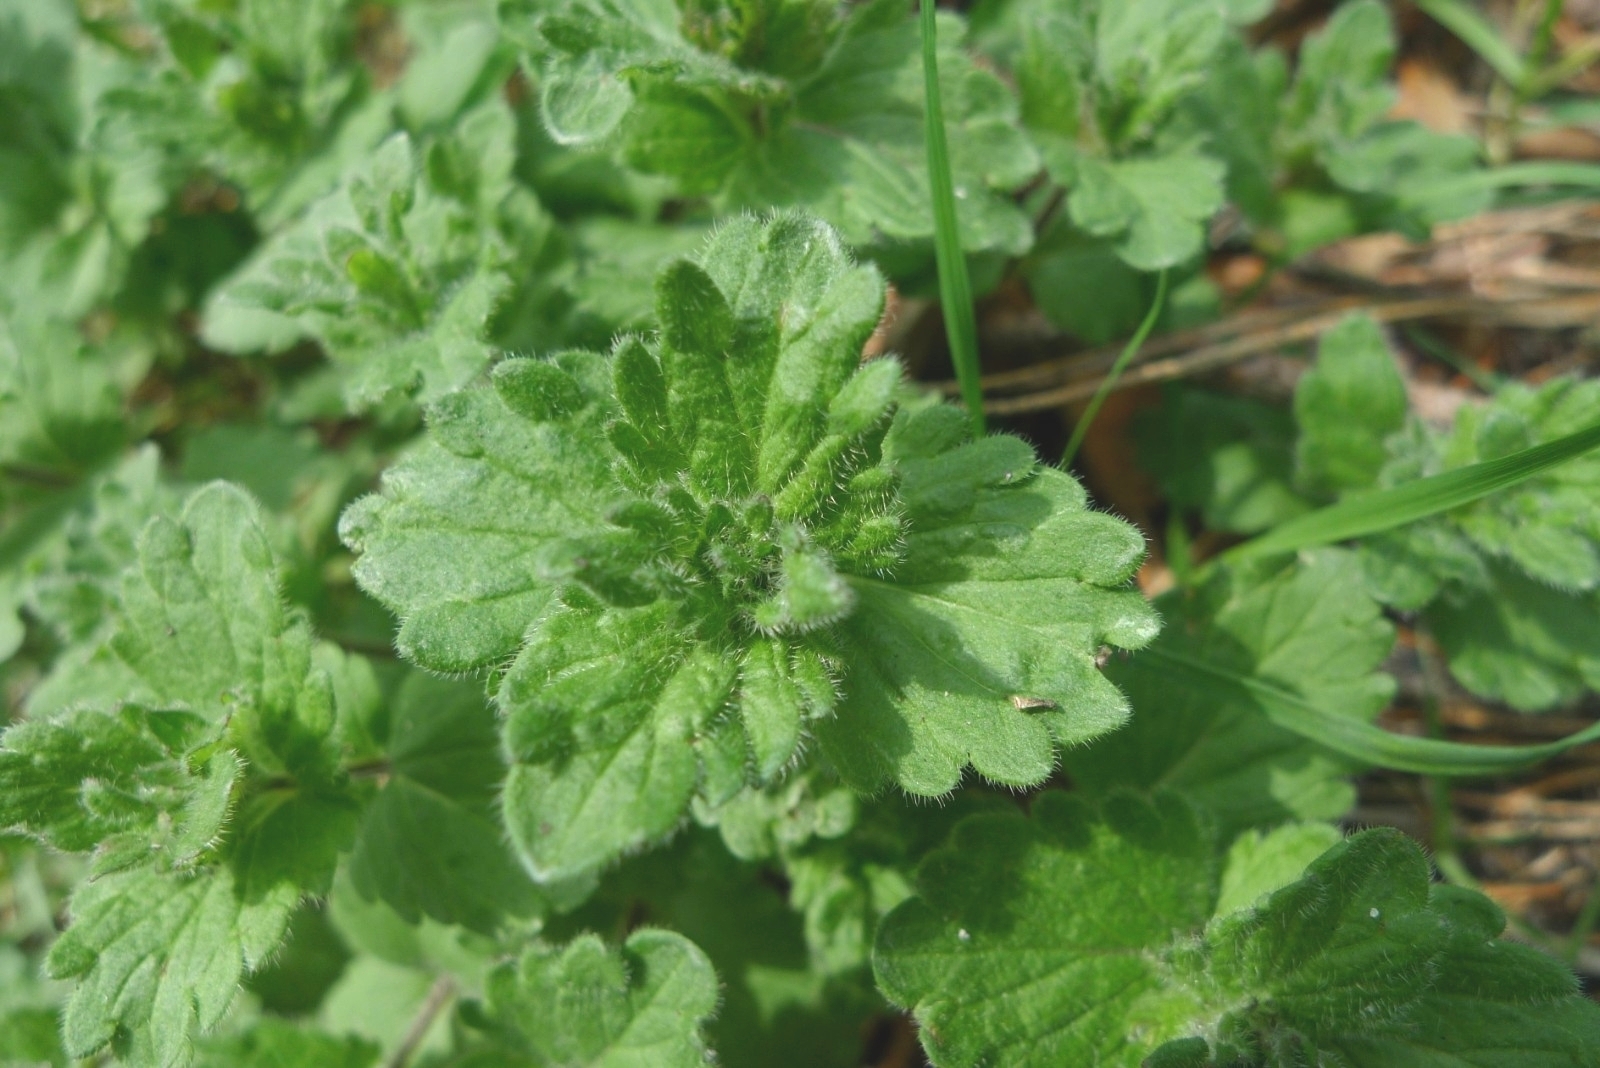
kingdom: Plantae
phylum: Tracheophyta
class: Magnoliopsida
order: Lamiales
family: Plantaginaceae
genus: Veronica
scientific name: Veronica chamaedrys
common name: Germander speedwell
